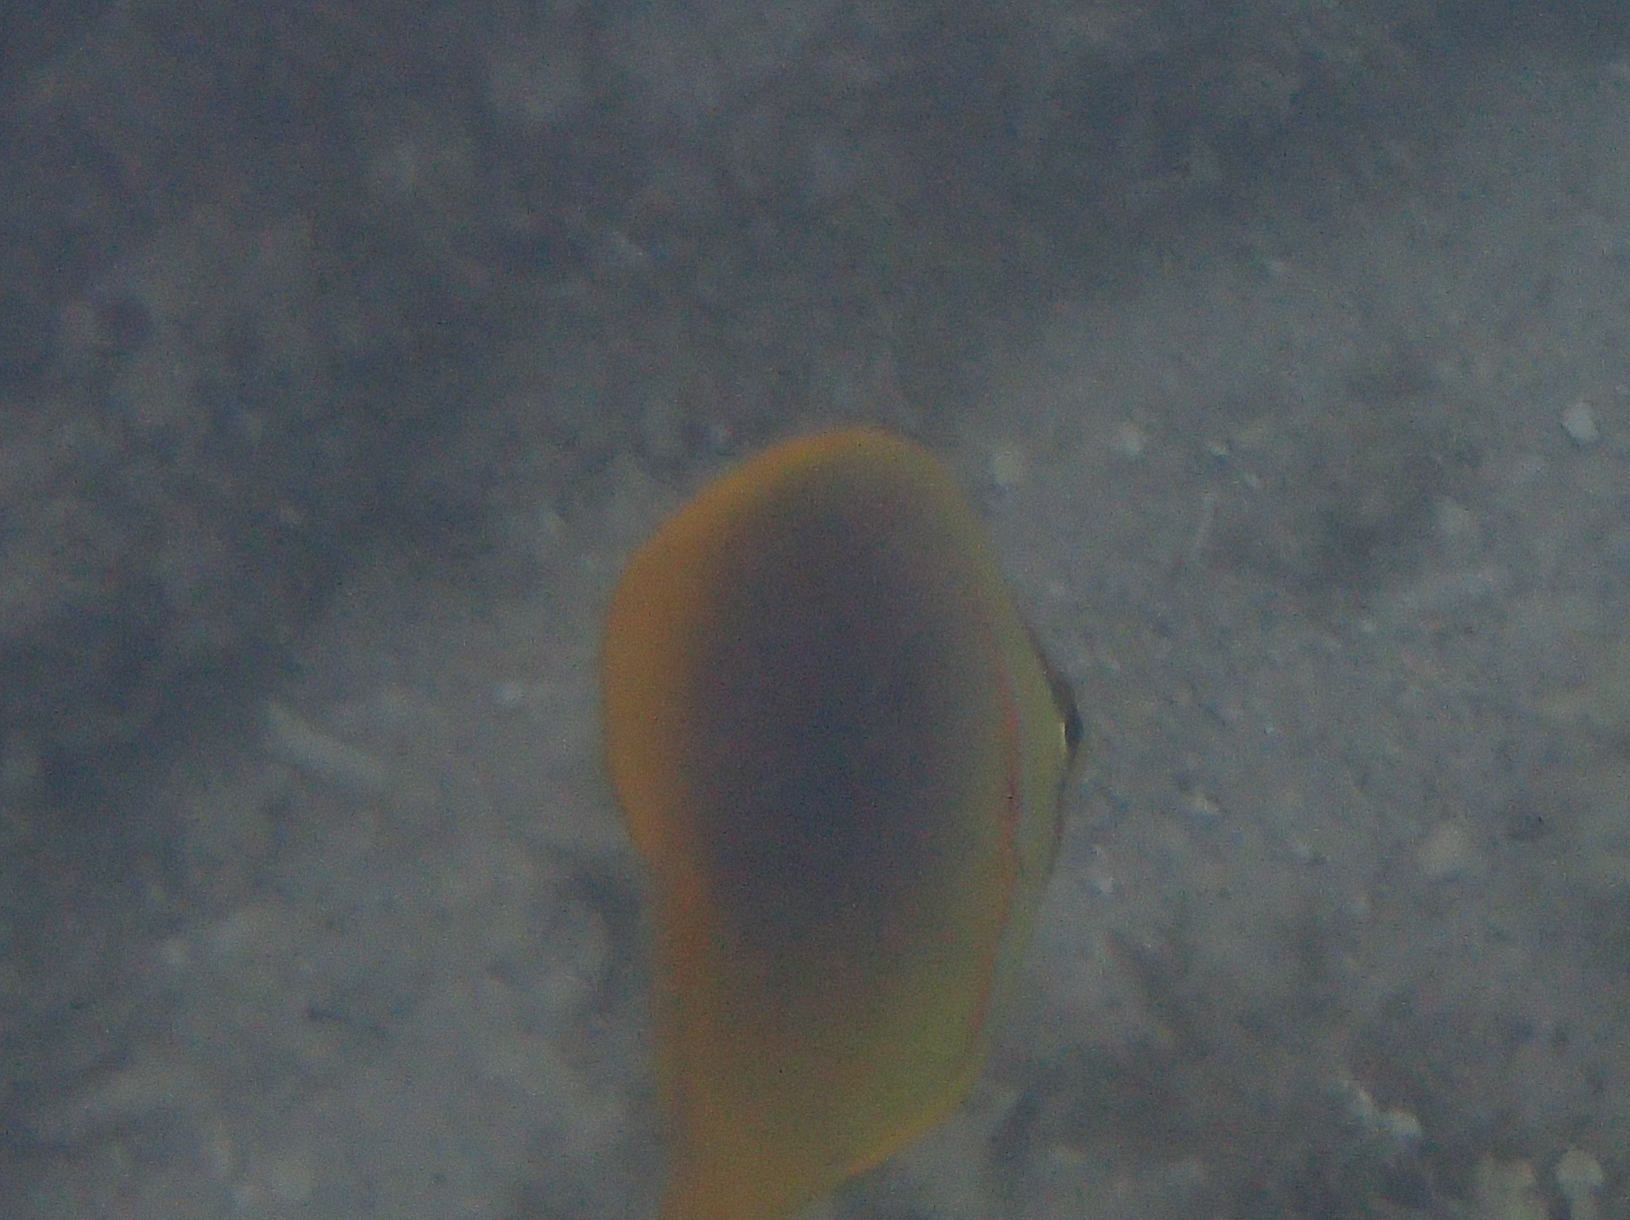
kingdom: Animalia
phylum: Chordata
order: Perciformes
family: Chaetodontidae
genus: Chaetodon
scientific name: Chaetodon aureofasciatus
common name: Golden butterflyfish
